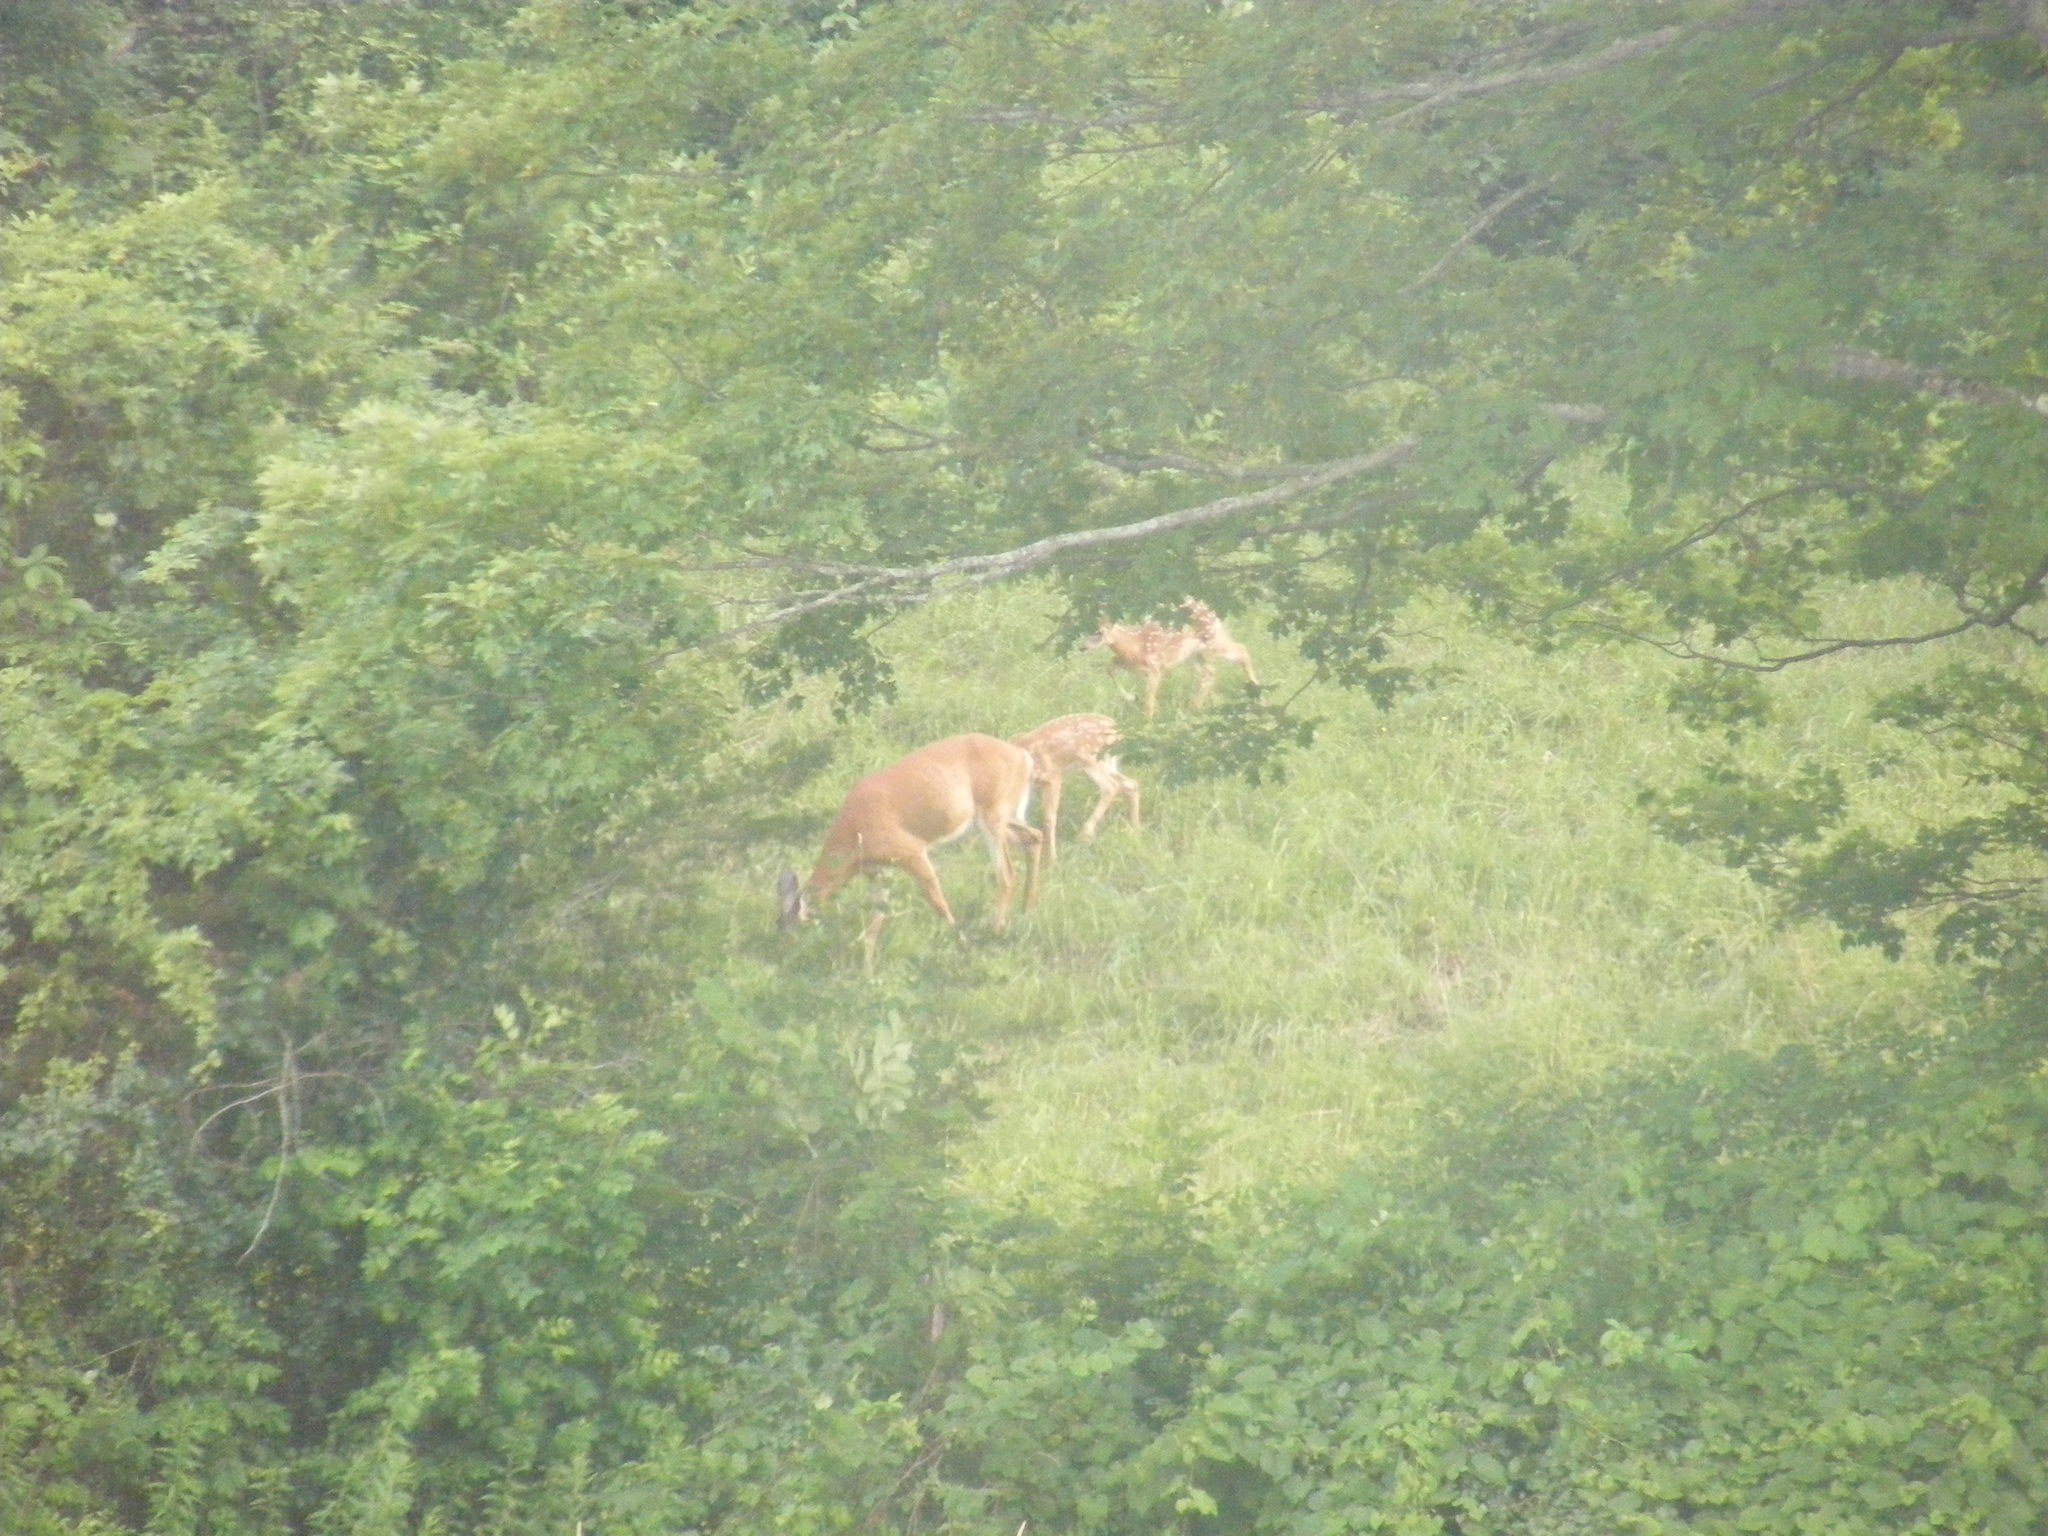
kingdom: Animalia
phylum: Chordata
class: Mammalia
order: Artiodactyla
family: Cervidae
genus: Odocoileus
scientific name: Odocoileus virginianus
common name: White-tailed deer
